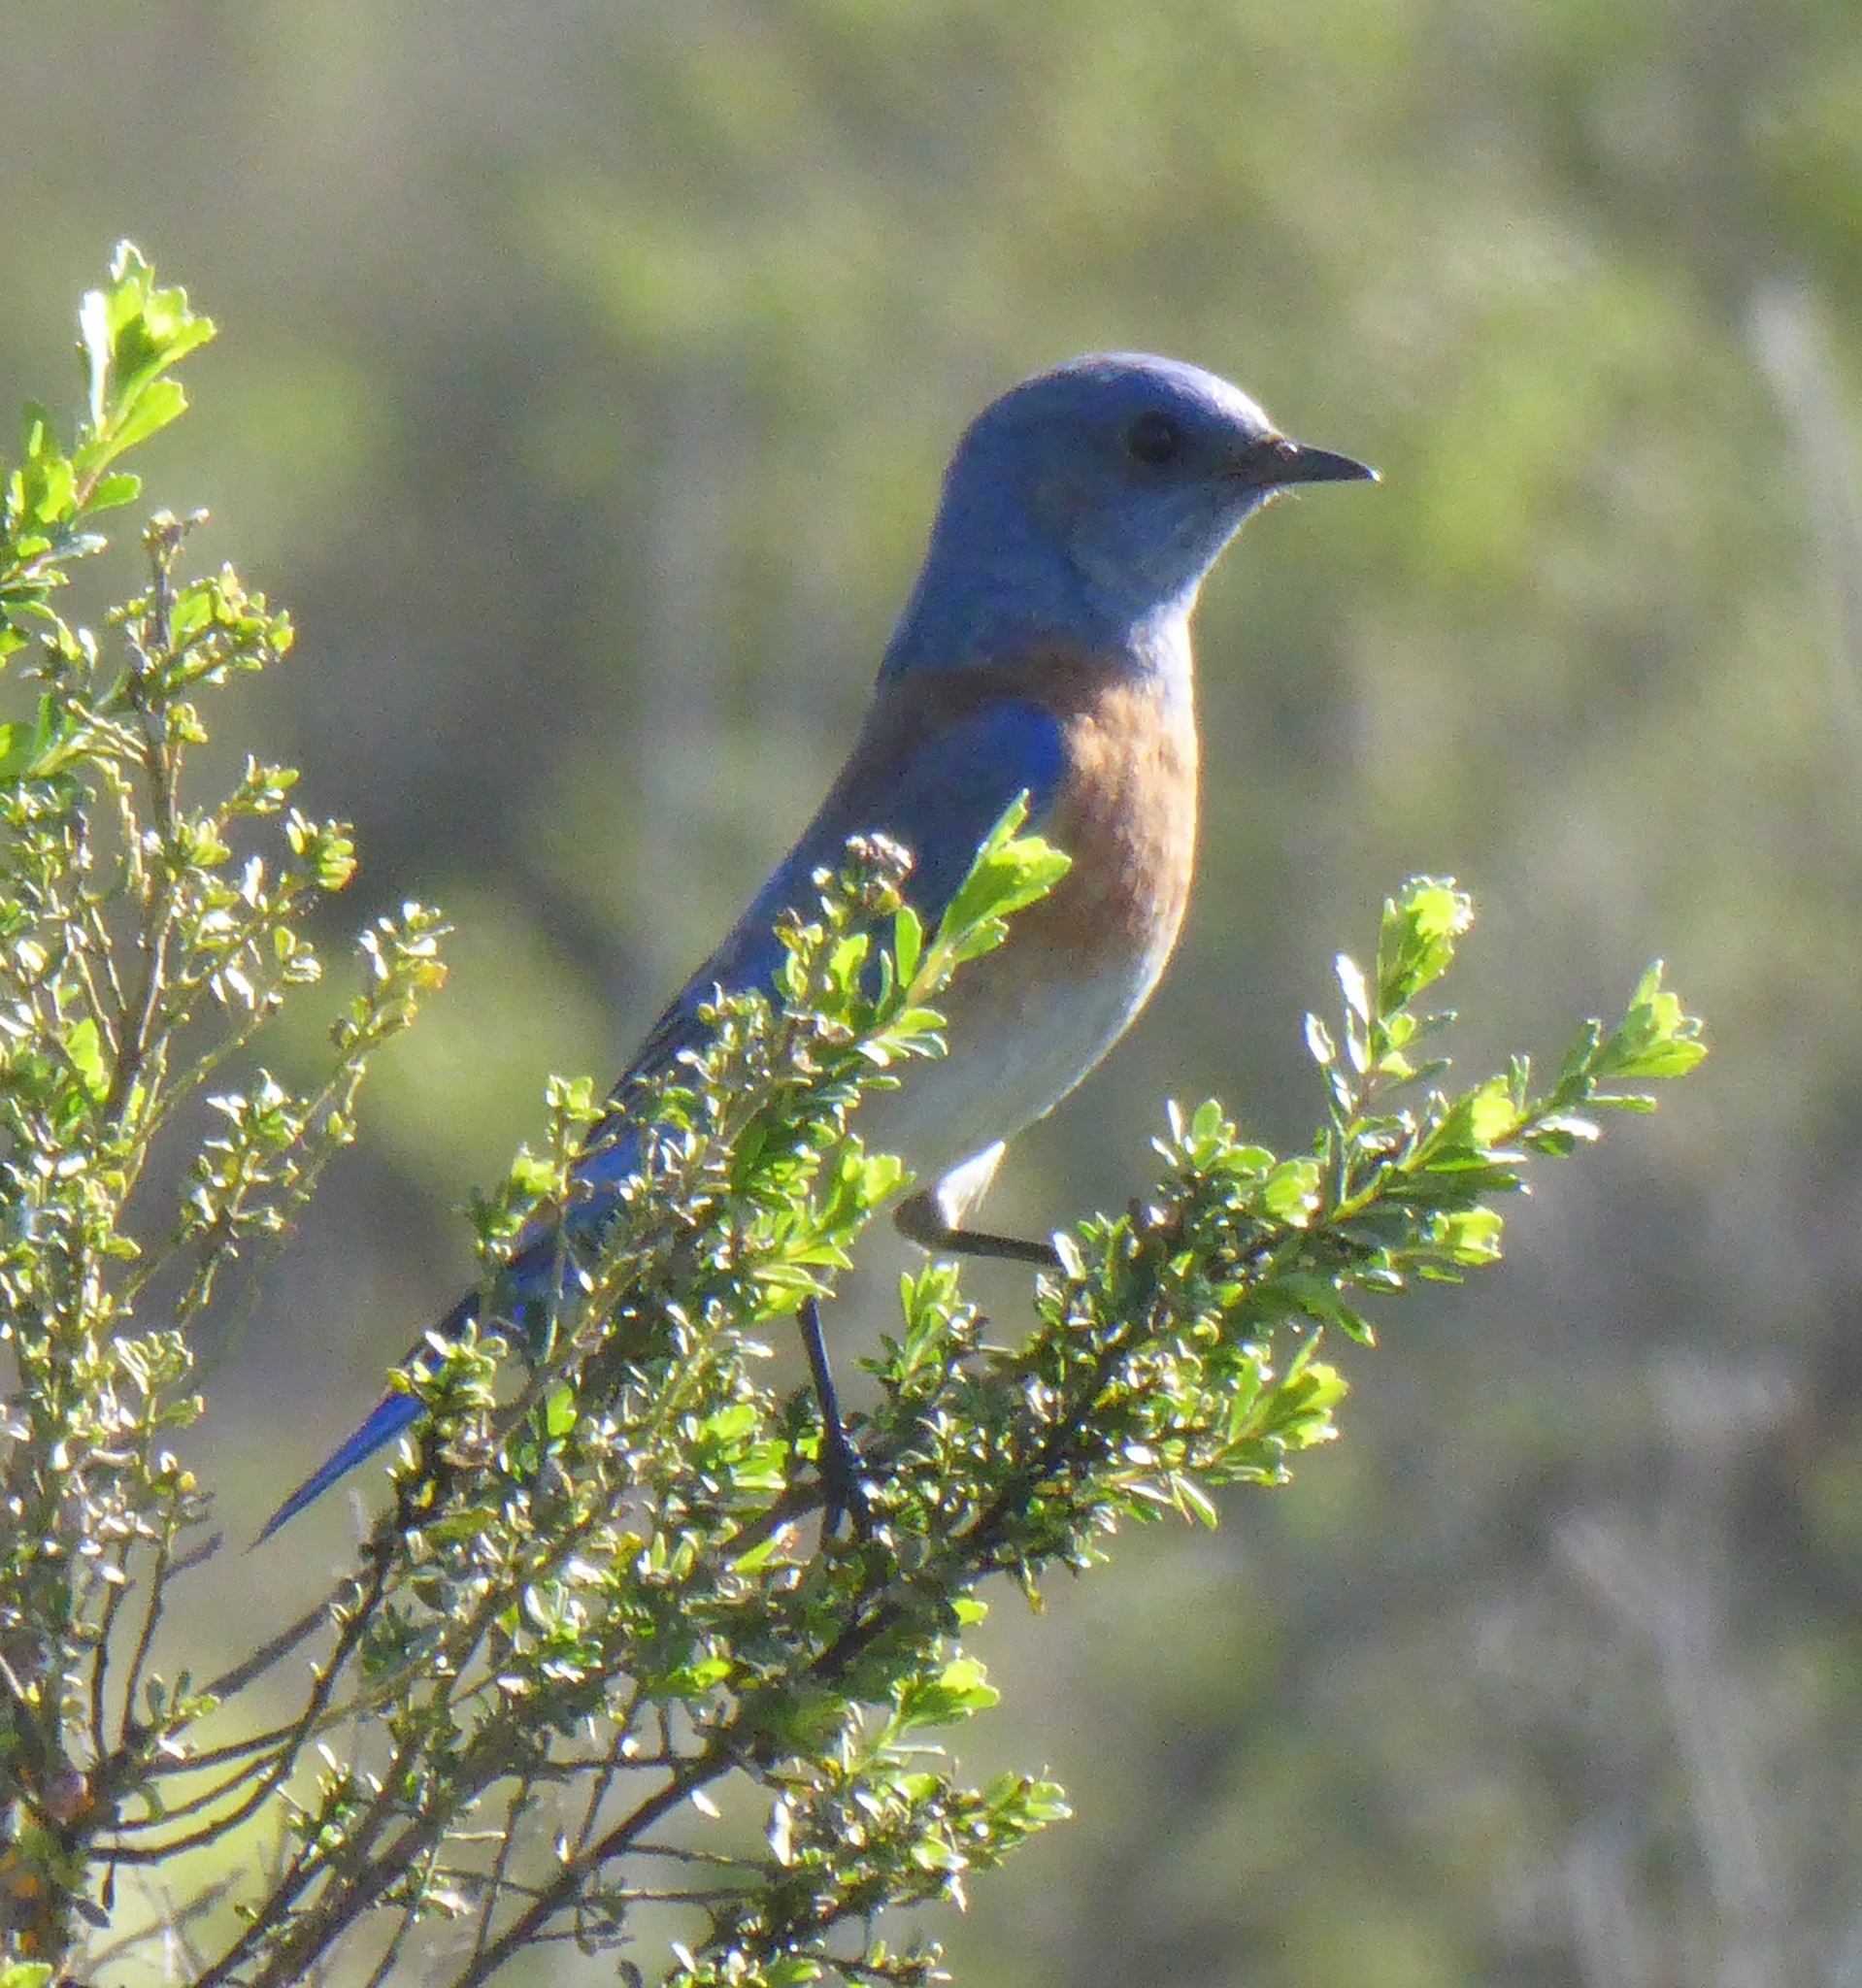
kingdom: Animalia
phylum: Chordata
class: Aves
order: Passeriformes
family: Turdidae
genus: Sialia
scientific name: Sialia mexicana
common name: Western bluebird
